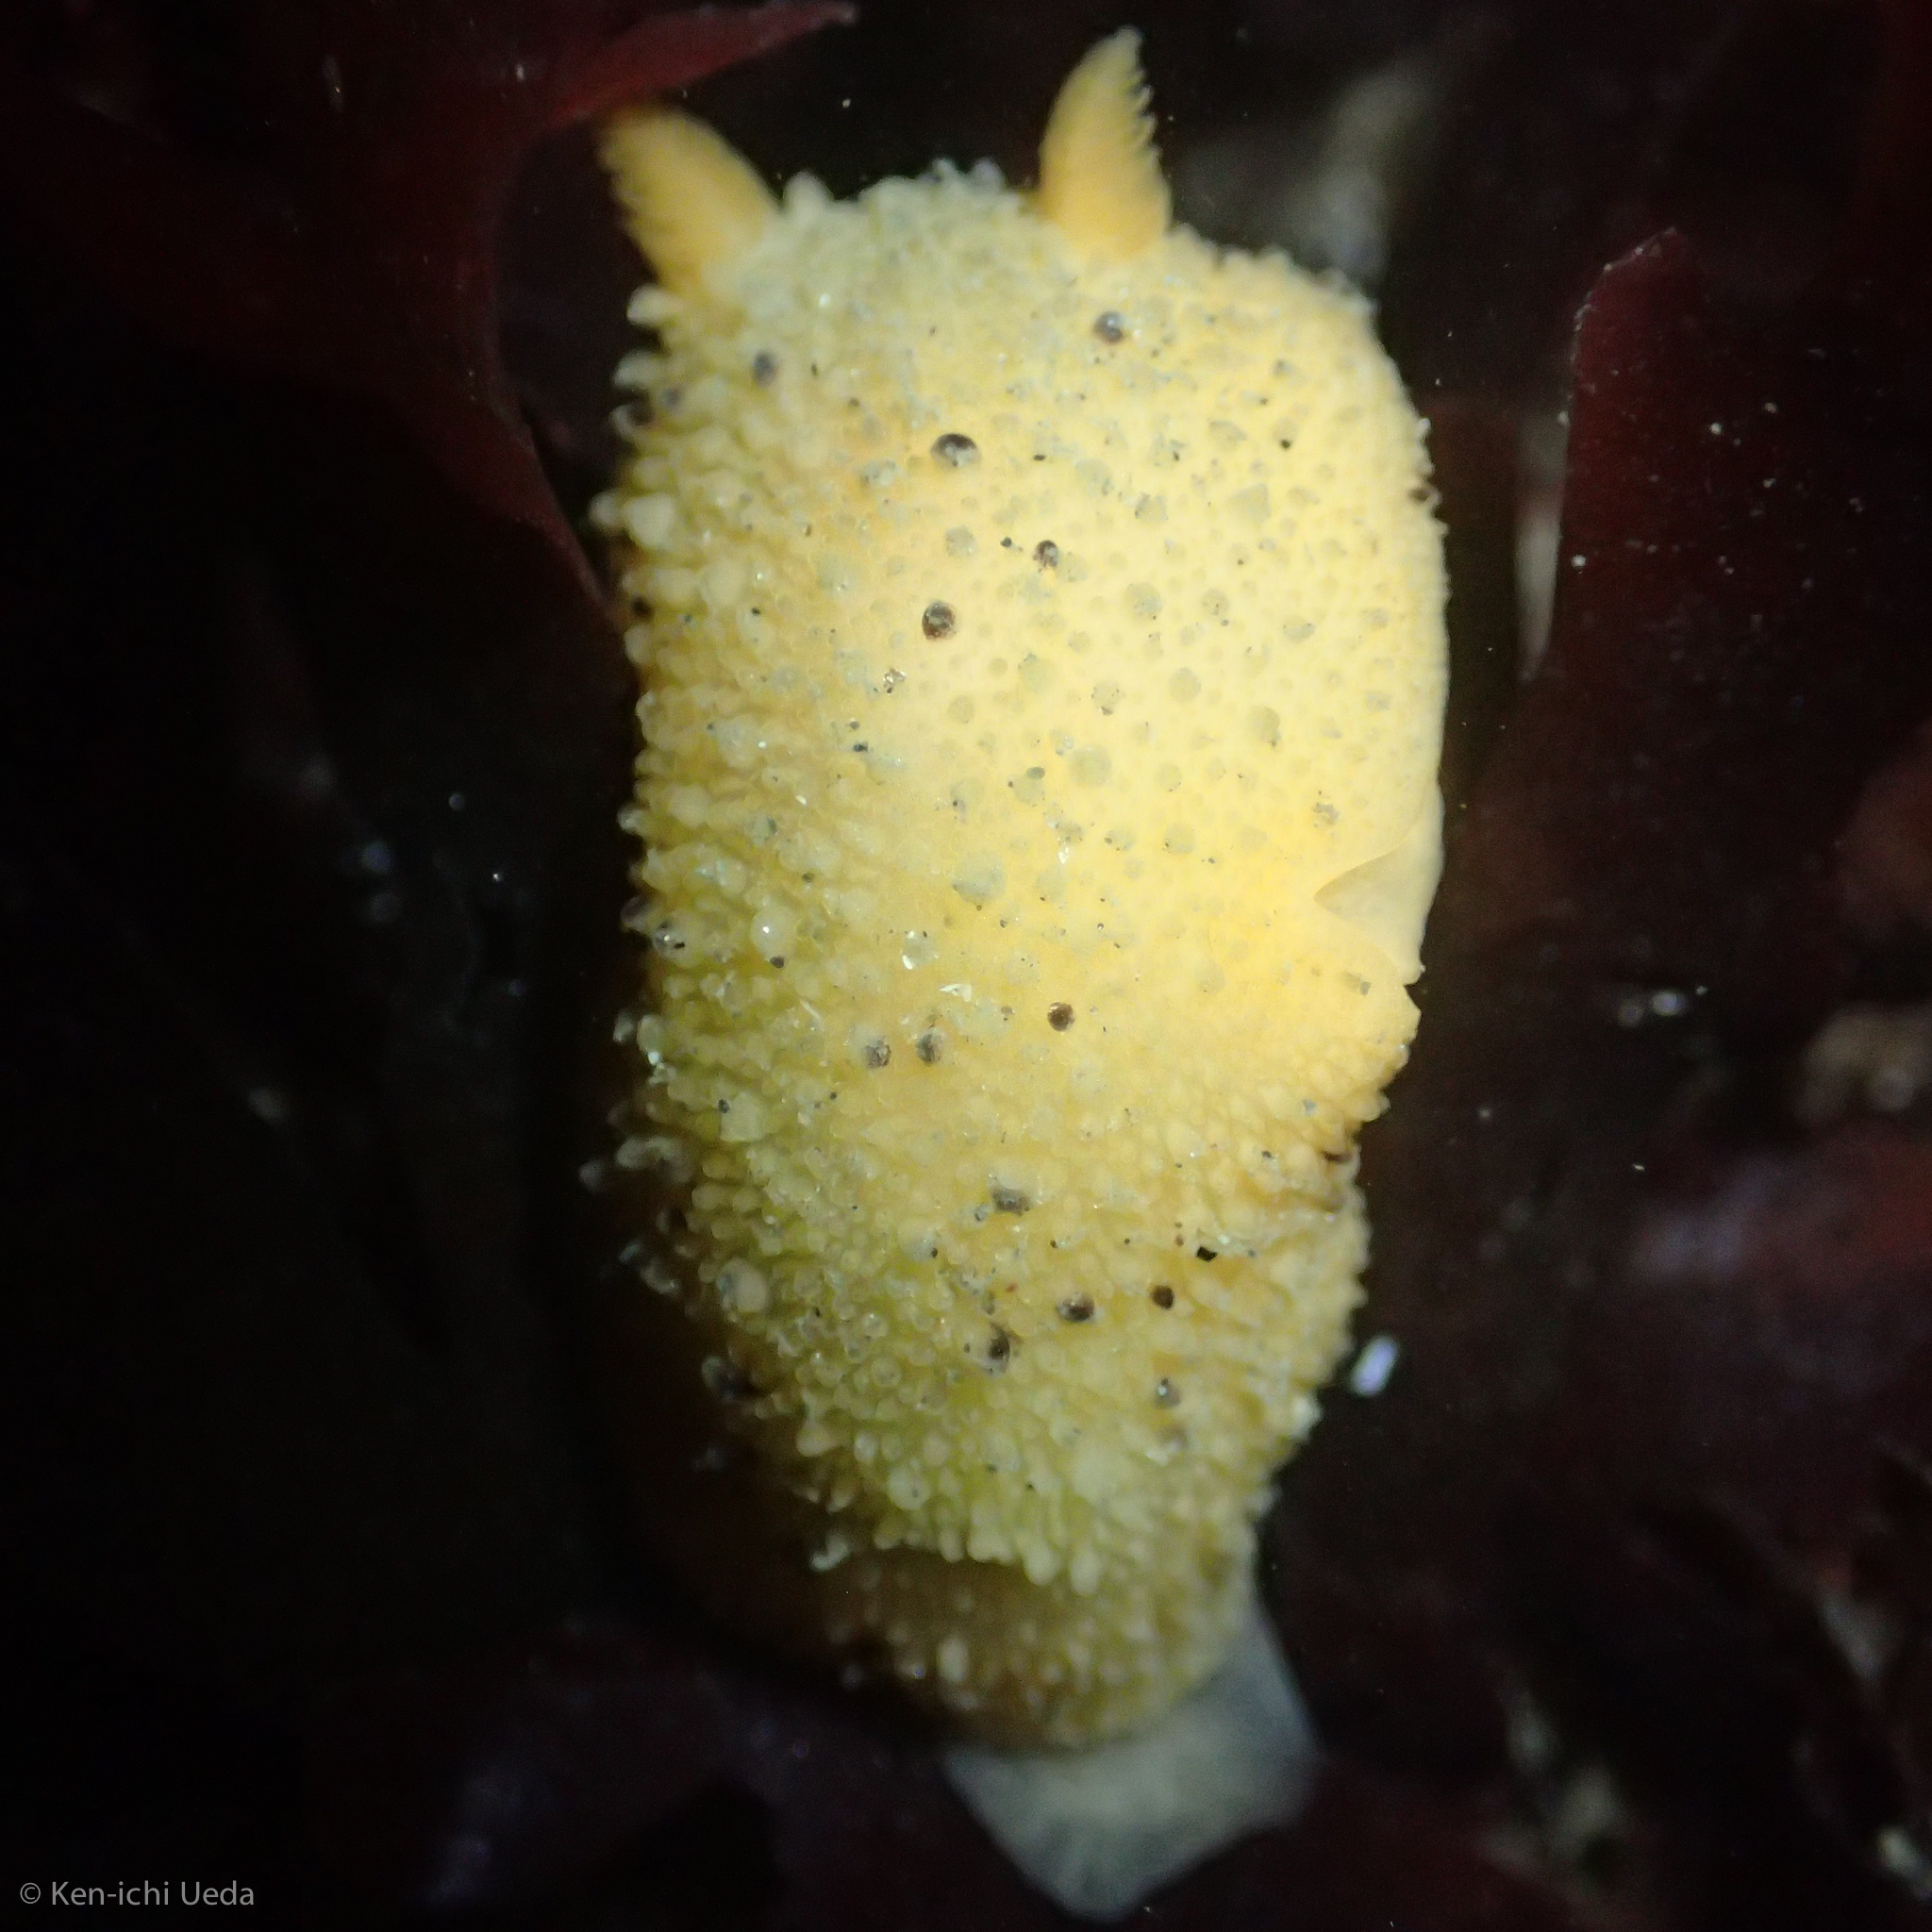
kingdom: Animalia
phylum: Mollusca
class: Gastropoda
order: Nudibranchia
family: Dorididae
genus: Doris
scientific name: Doris montereyensis
